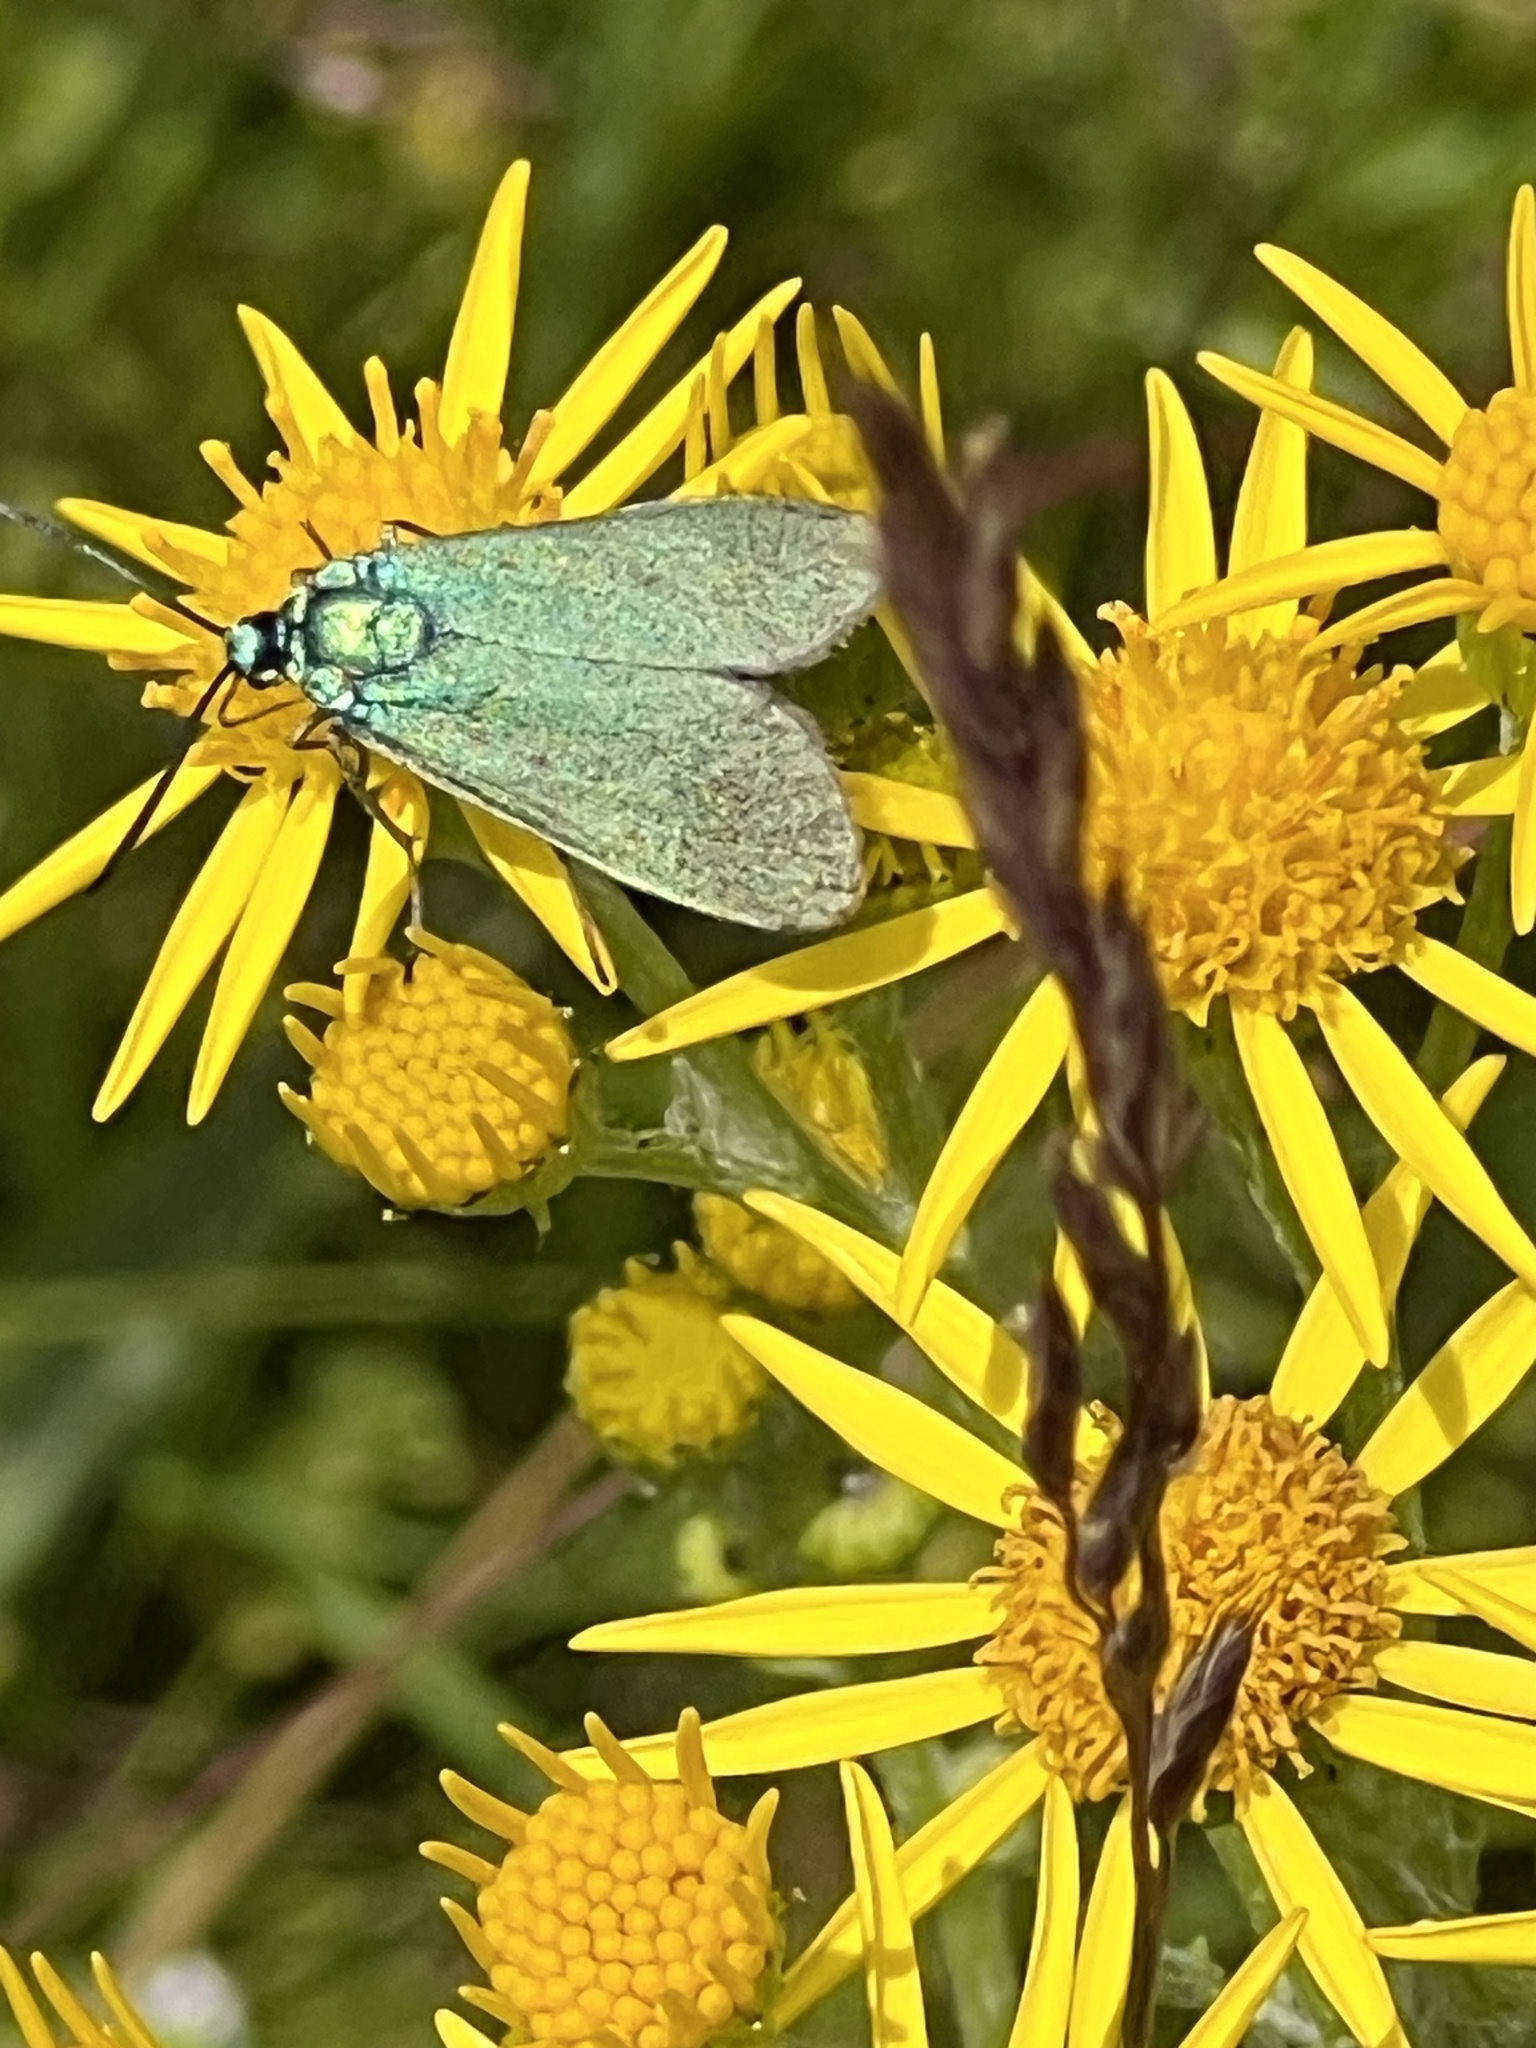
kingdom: Animalia
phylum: Arthropoda
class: Insecta
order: Lepidoptera
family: Zygaenidae
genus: Adscita
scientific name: Adscita statices
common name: Forester
